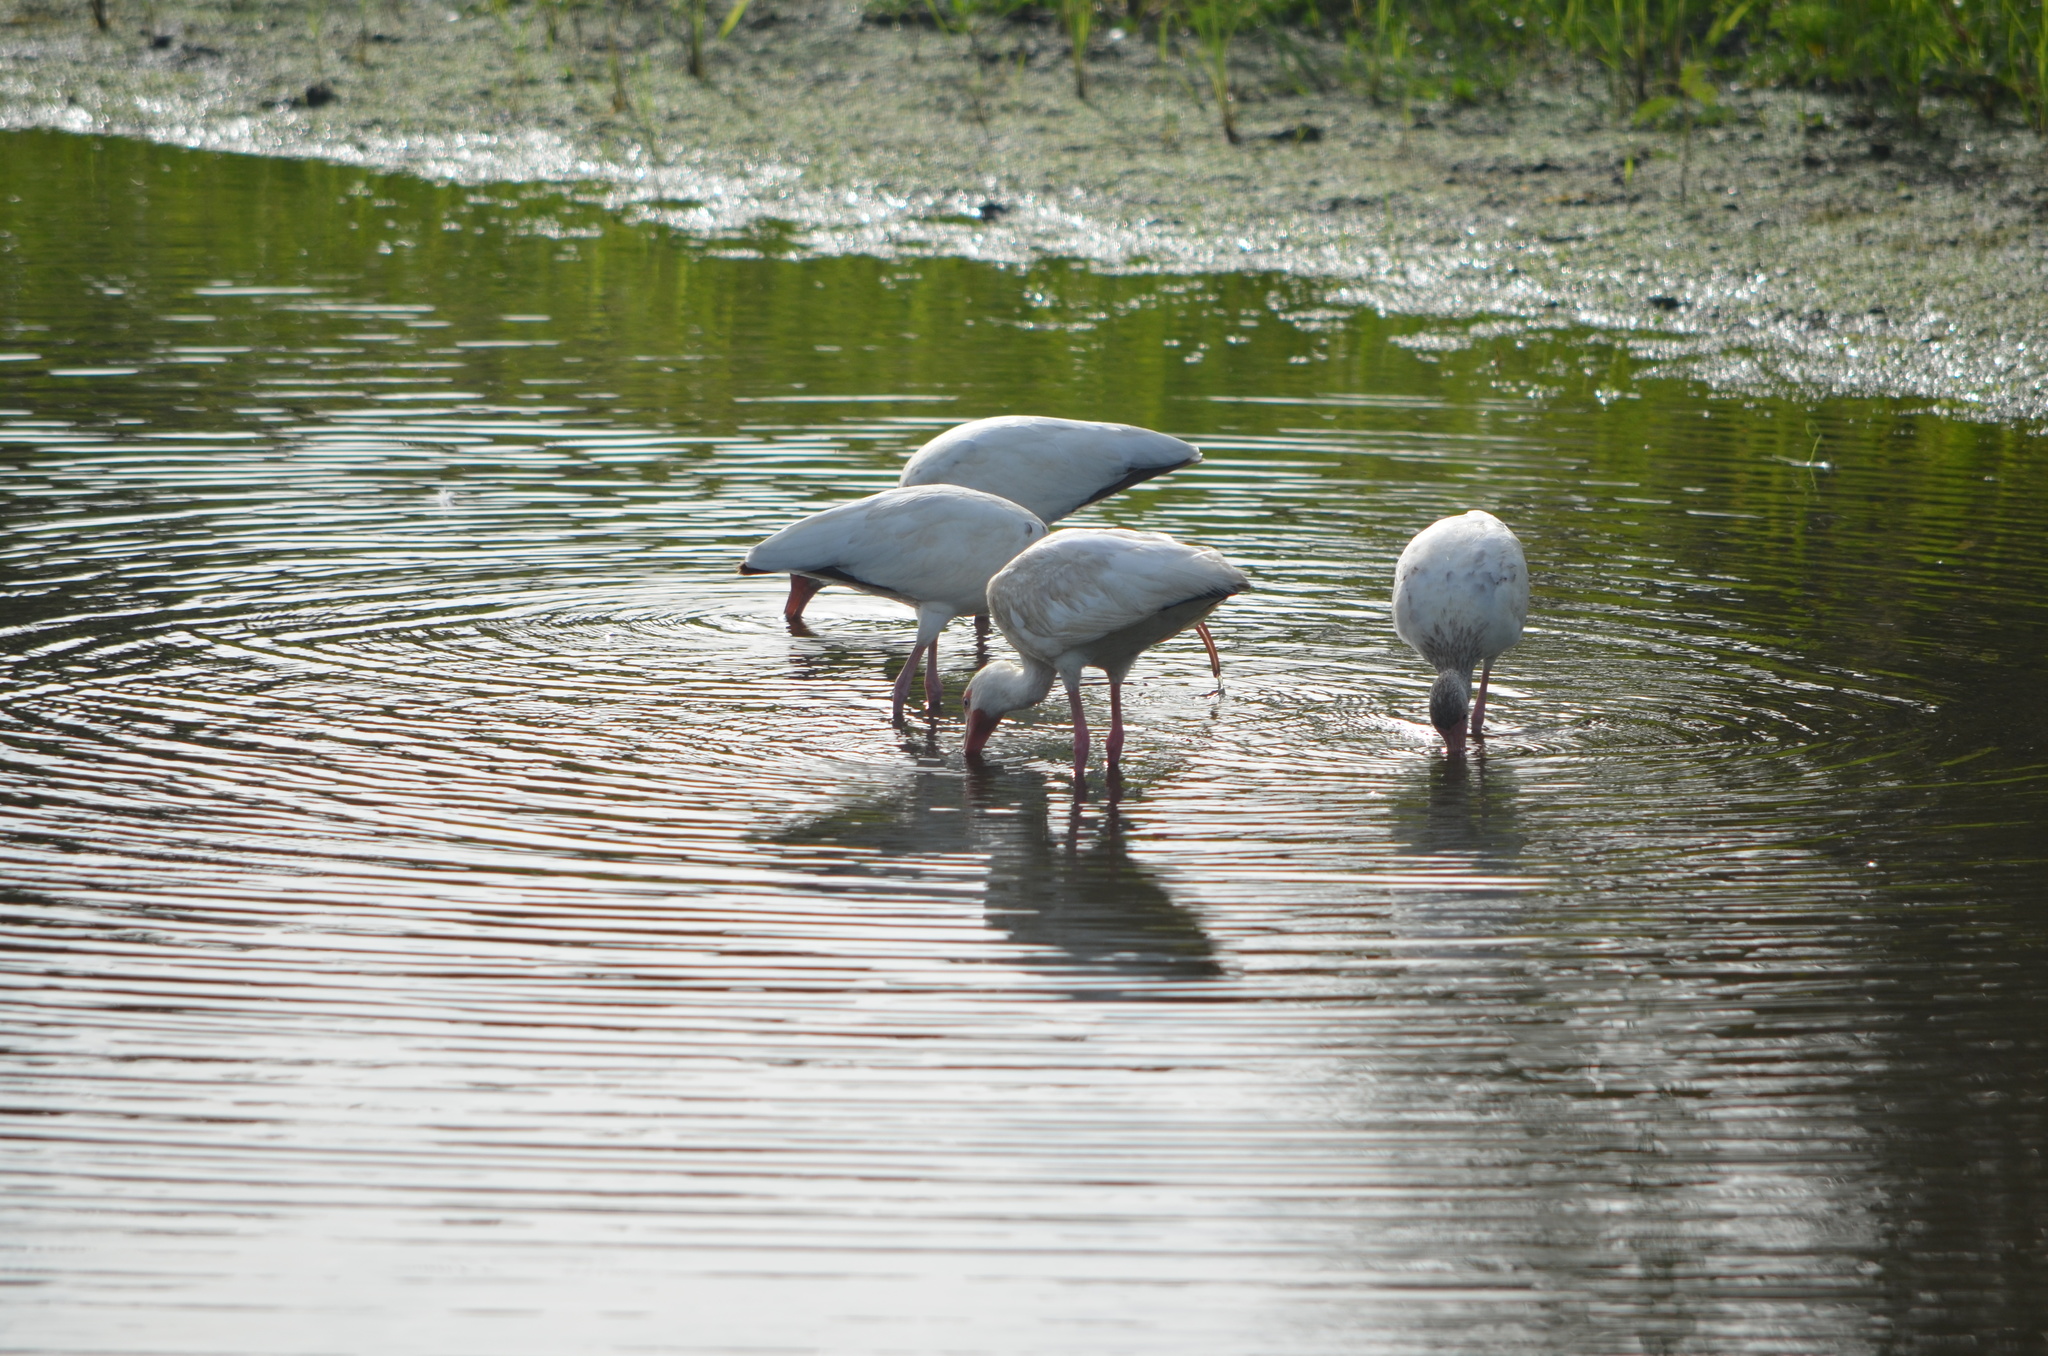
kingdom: Animalia
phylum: Chordata
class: Aves
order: Pelecaniformes
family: Threskiornithidae
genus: Eudocimus
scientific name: Eudocimus albus
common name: White ibis
